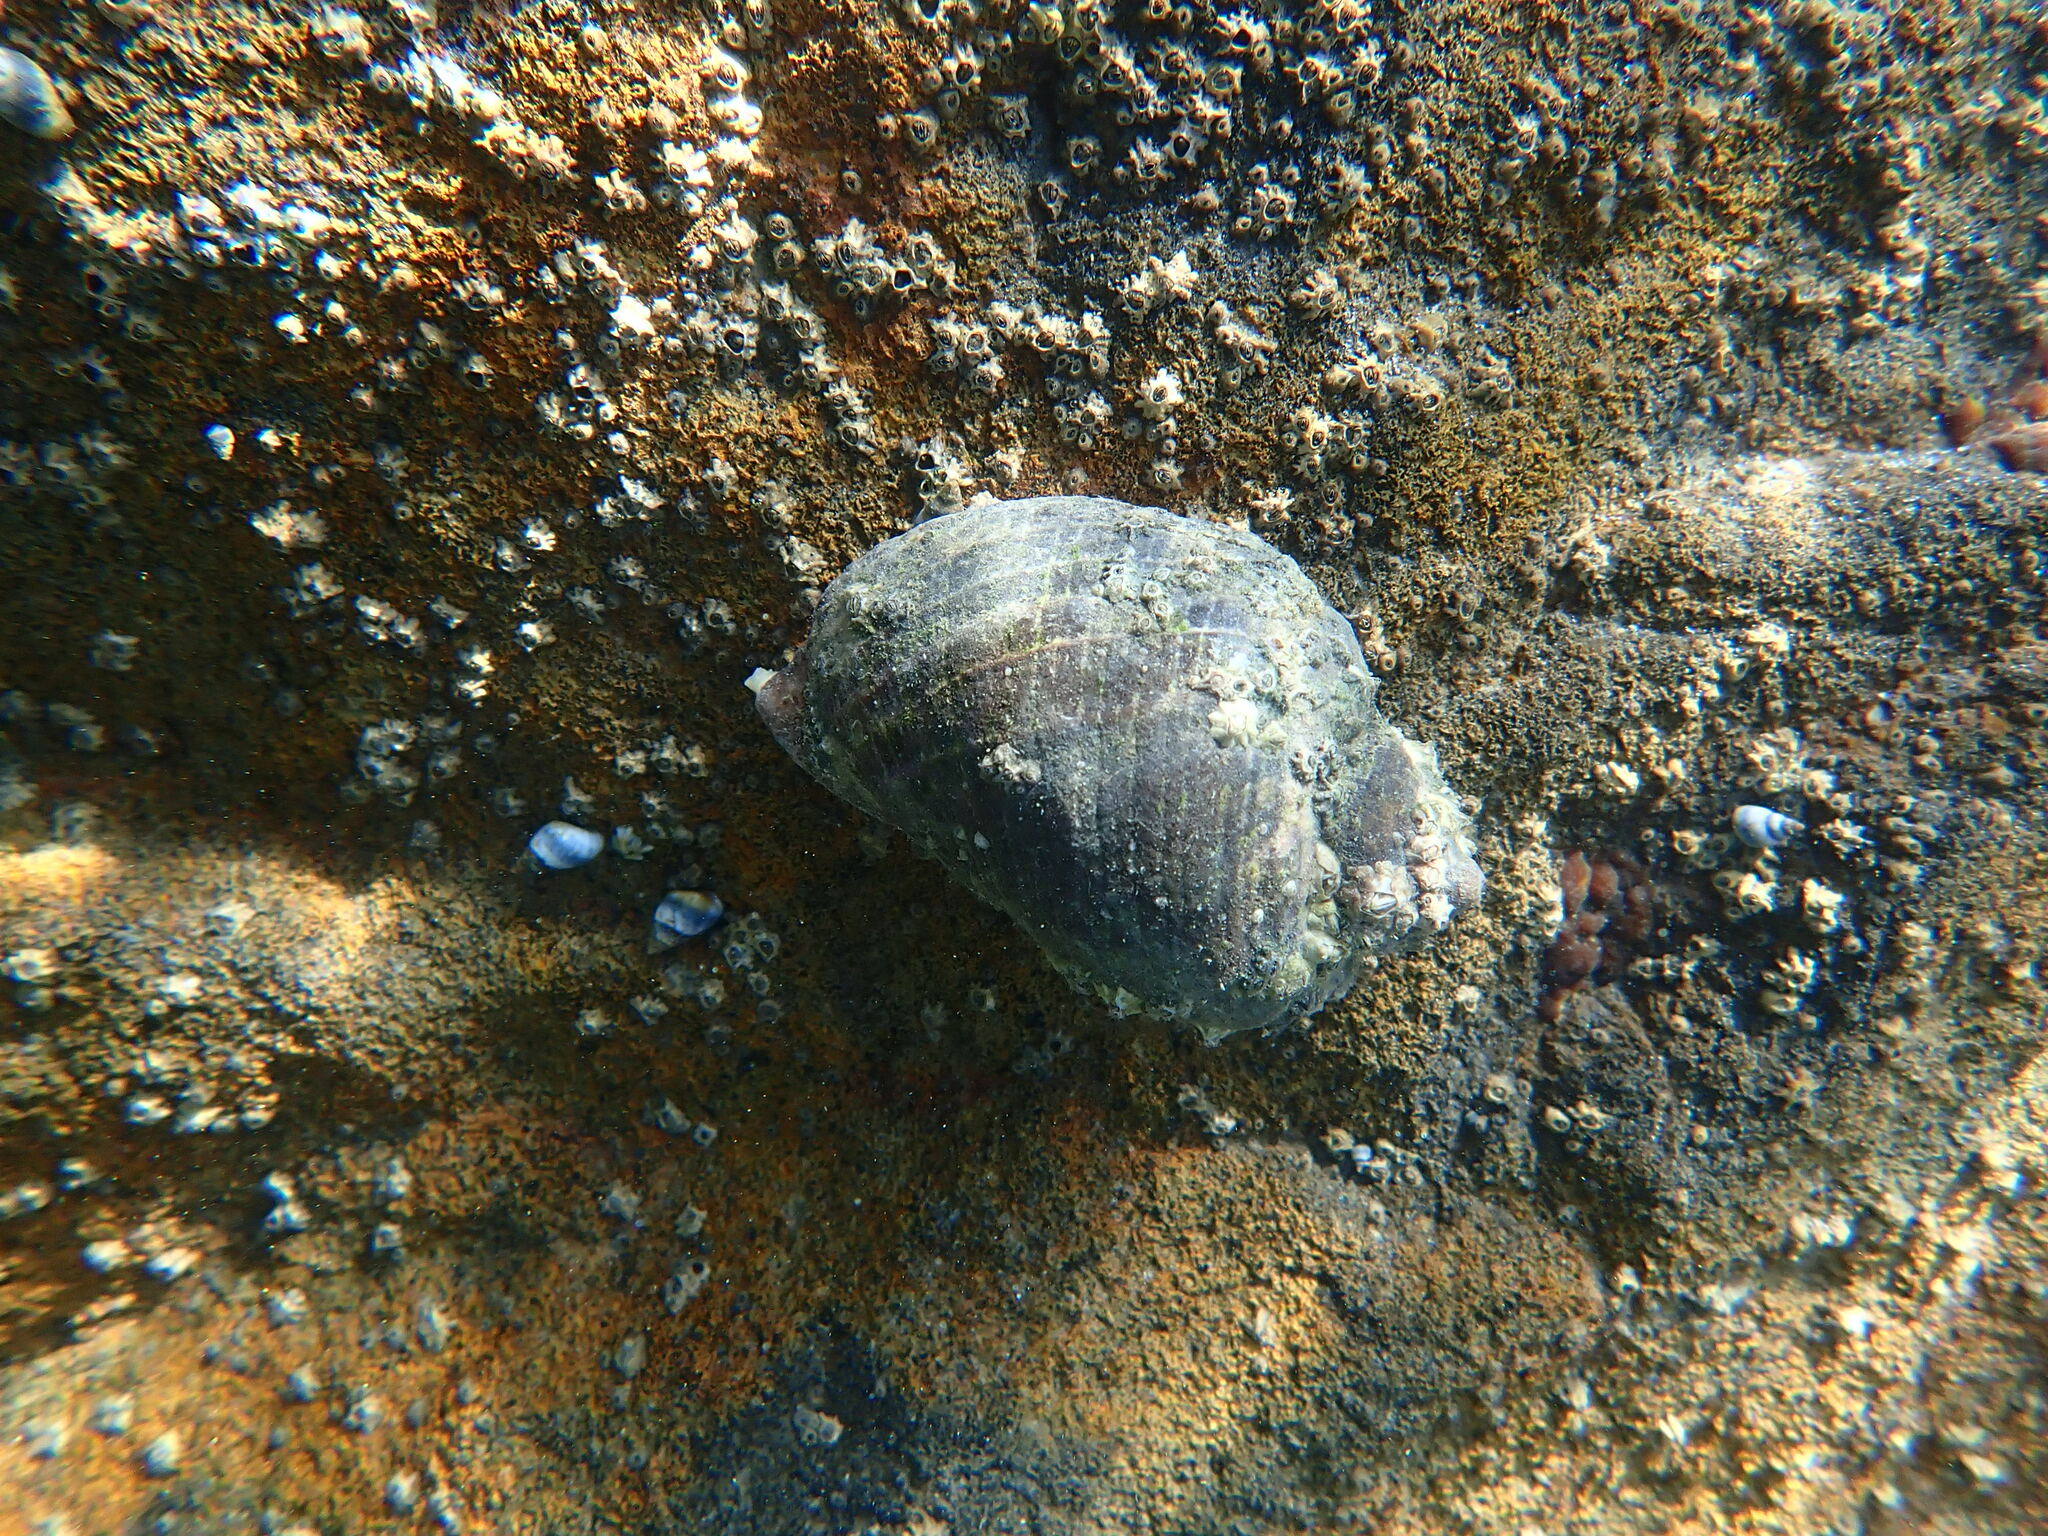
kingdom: Animalia
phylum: Mollusca
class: Gastropoda
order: Neogastropoda
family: Muricidae
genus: Haustrum
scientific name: Haustrum haustorium
